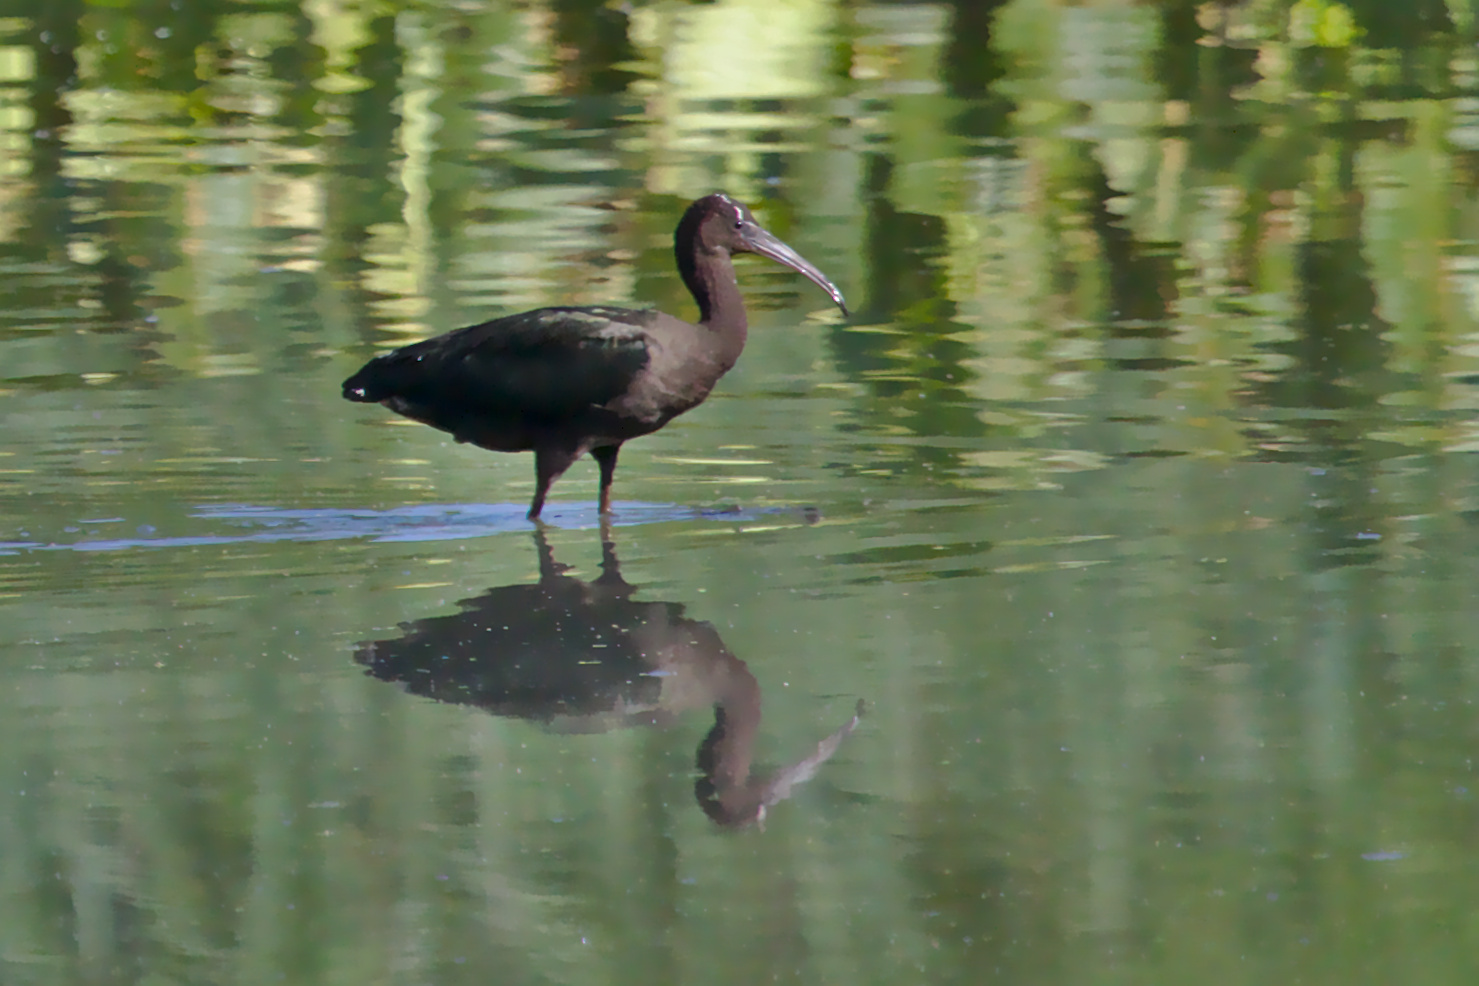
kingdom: Animalia
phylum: Chordata
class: Aves
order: Pelecaniformes
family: Threskiornithidae
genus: Plegadis
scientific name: Plegadis falcinellus
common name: Glossy ibis
